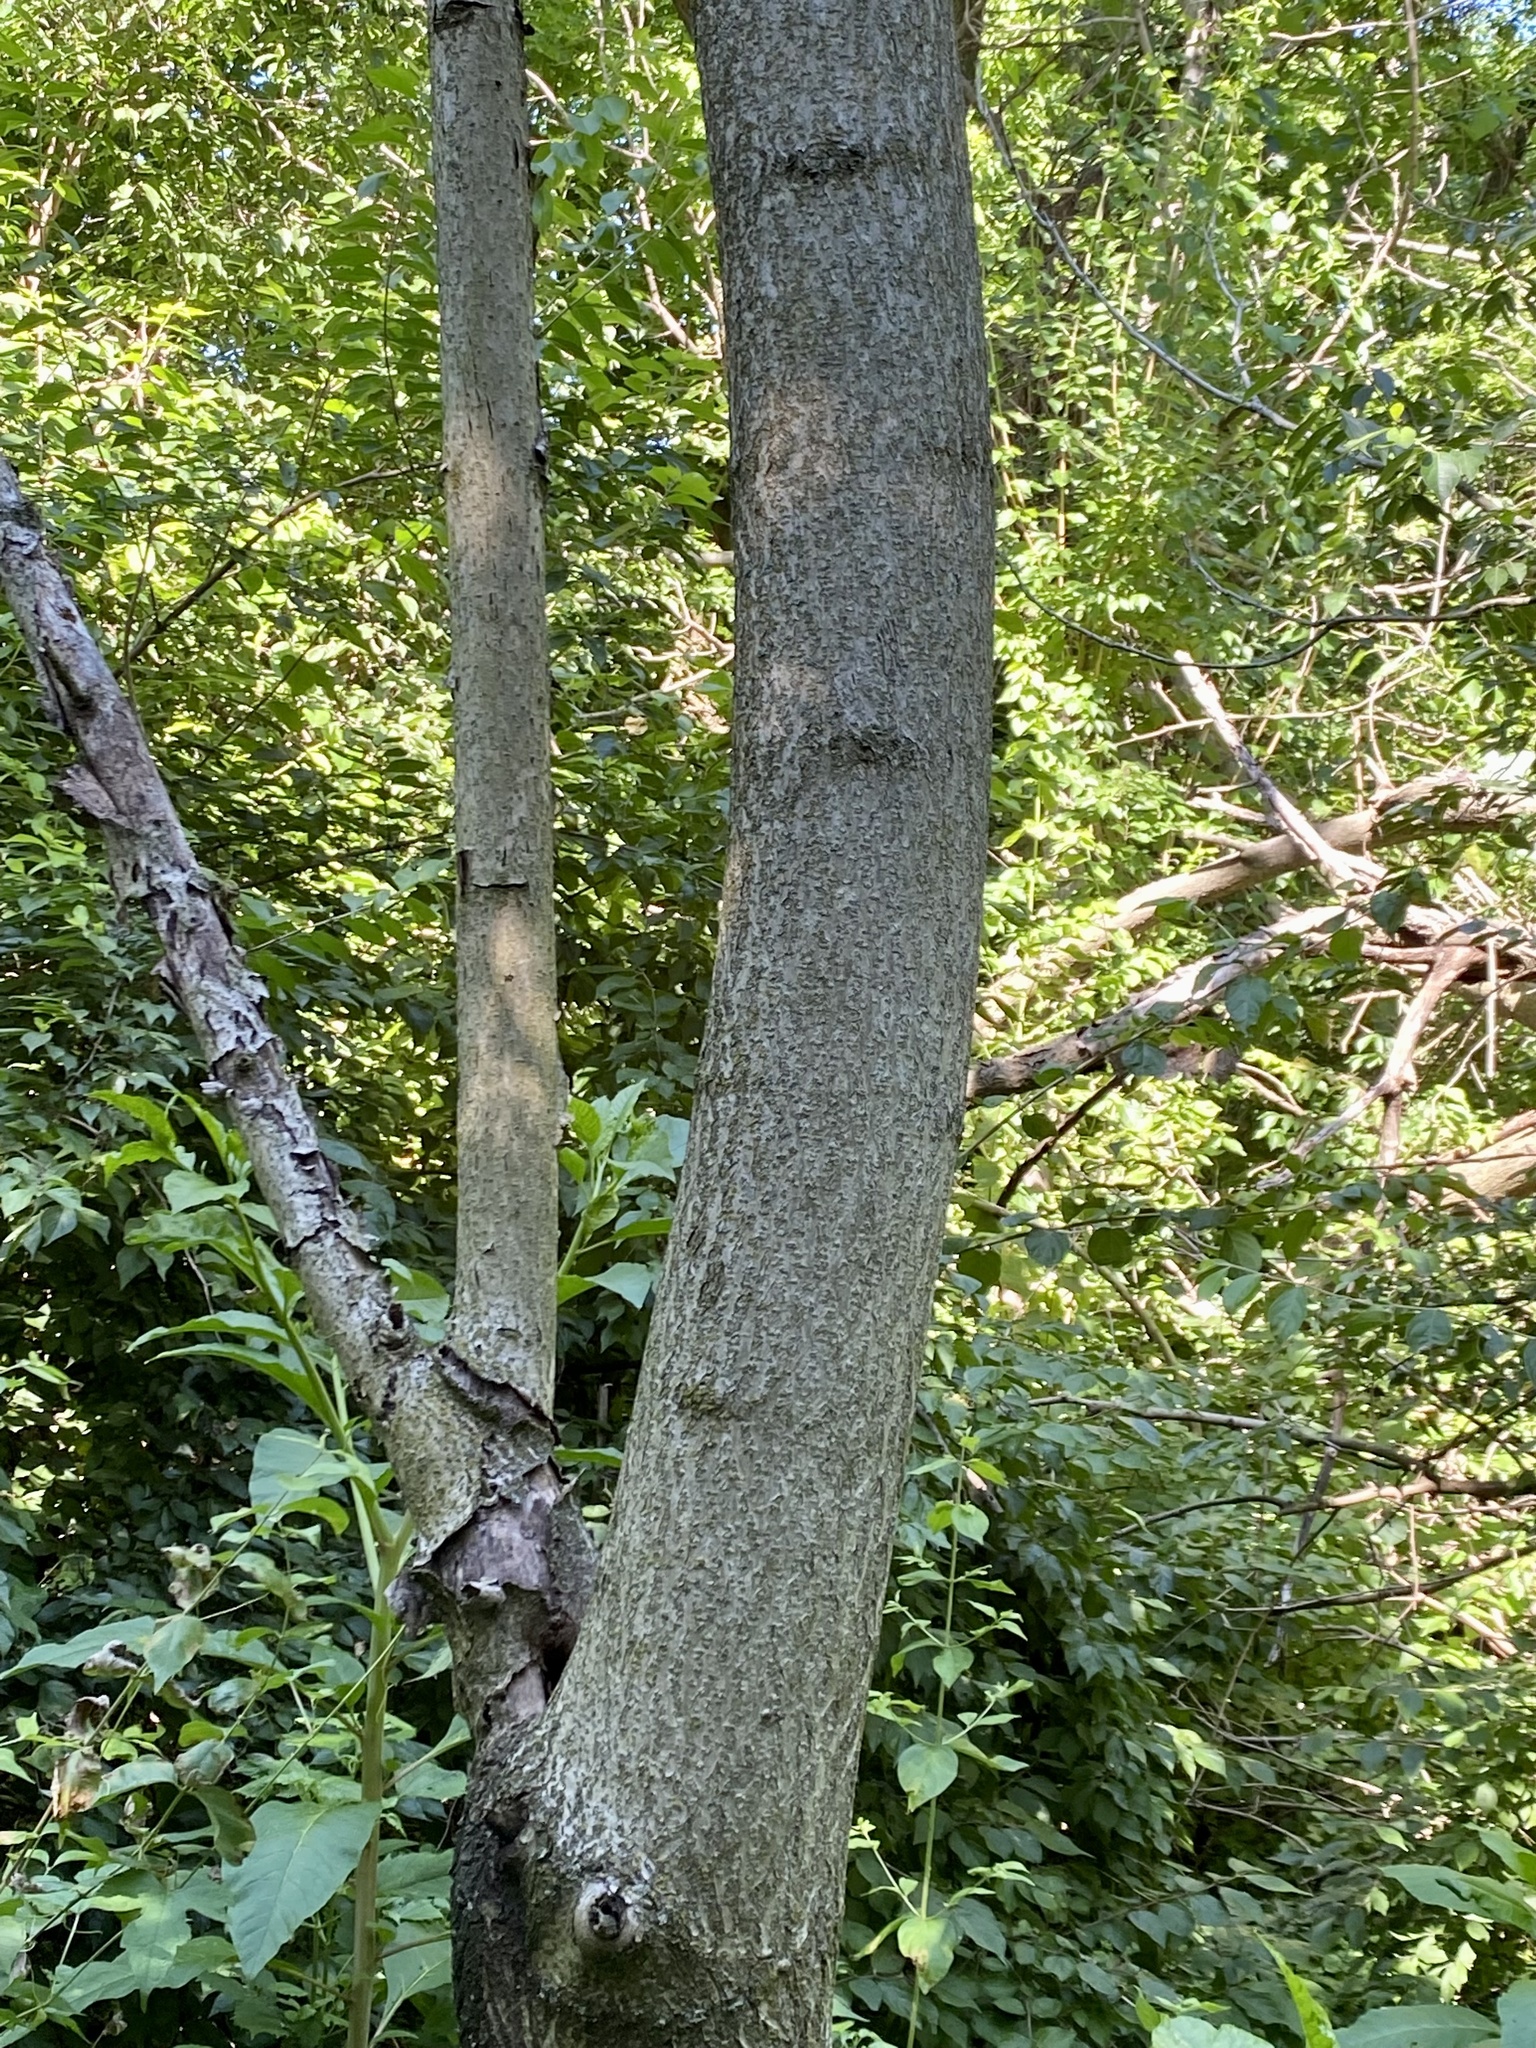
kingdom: Plantae
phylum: Tracheophyta
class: Magnoliopsida
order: Sapindales
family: Simaroubaceae
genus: Ailanthus
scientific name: Ailanthus altissima
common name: Tree-of-heaven
